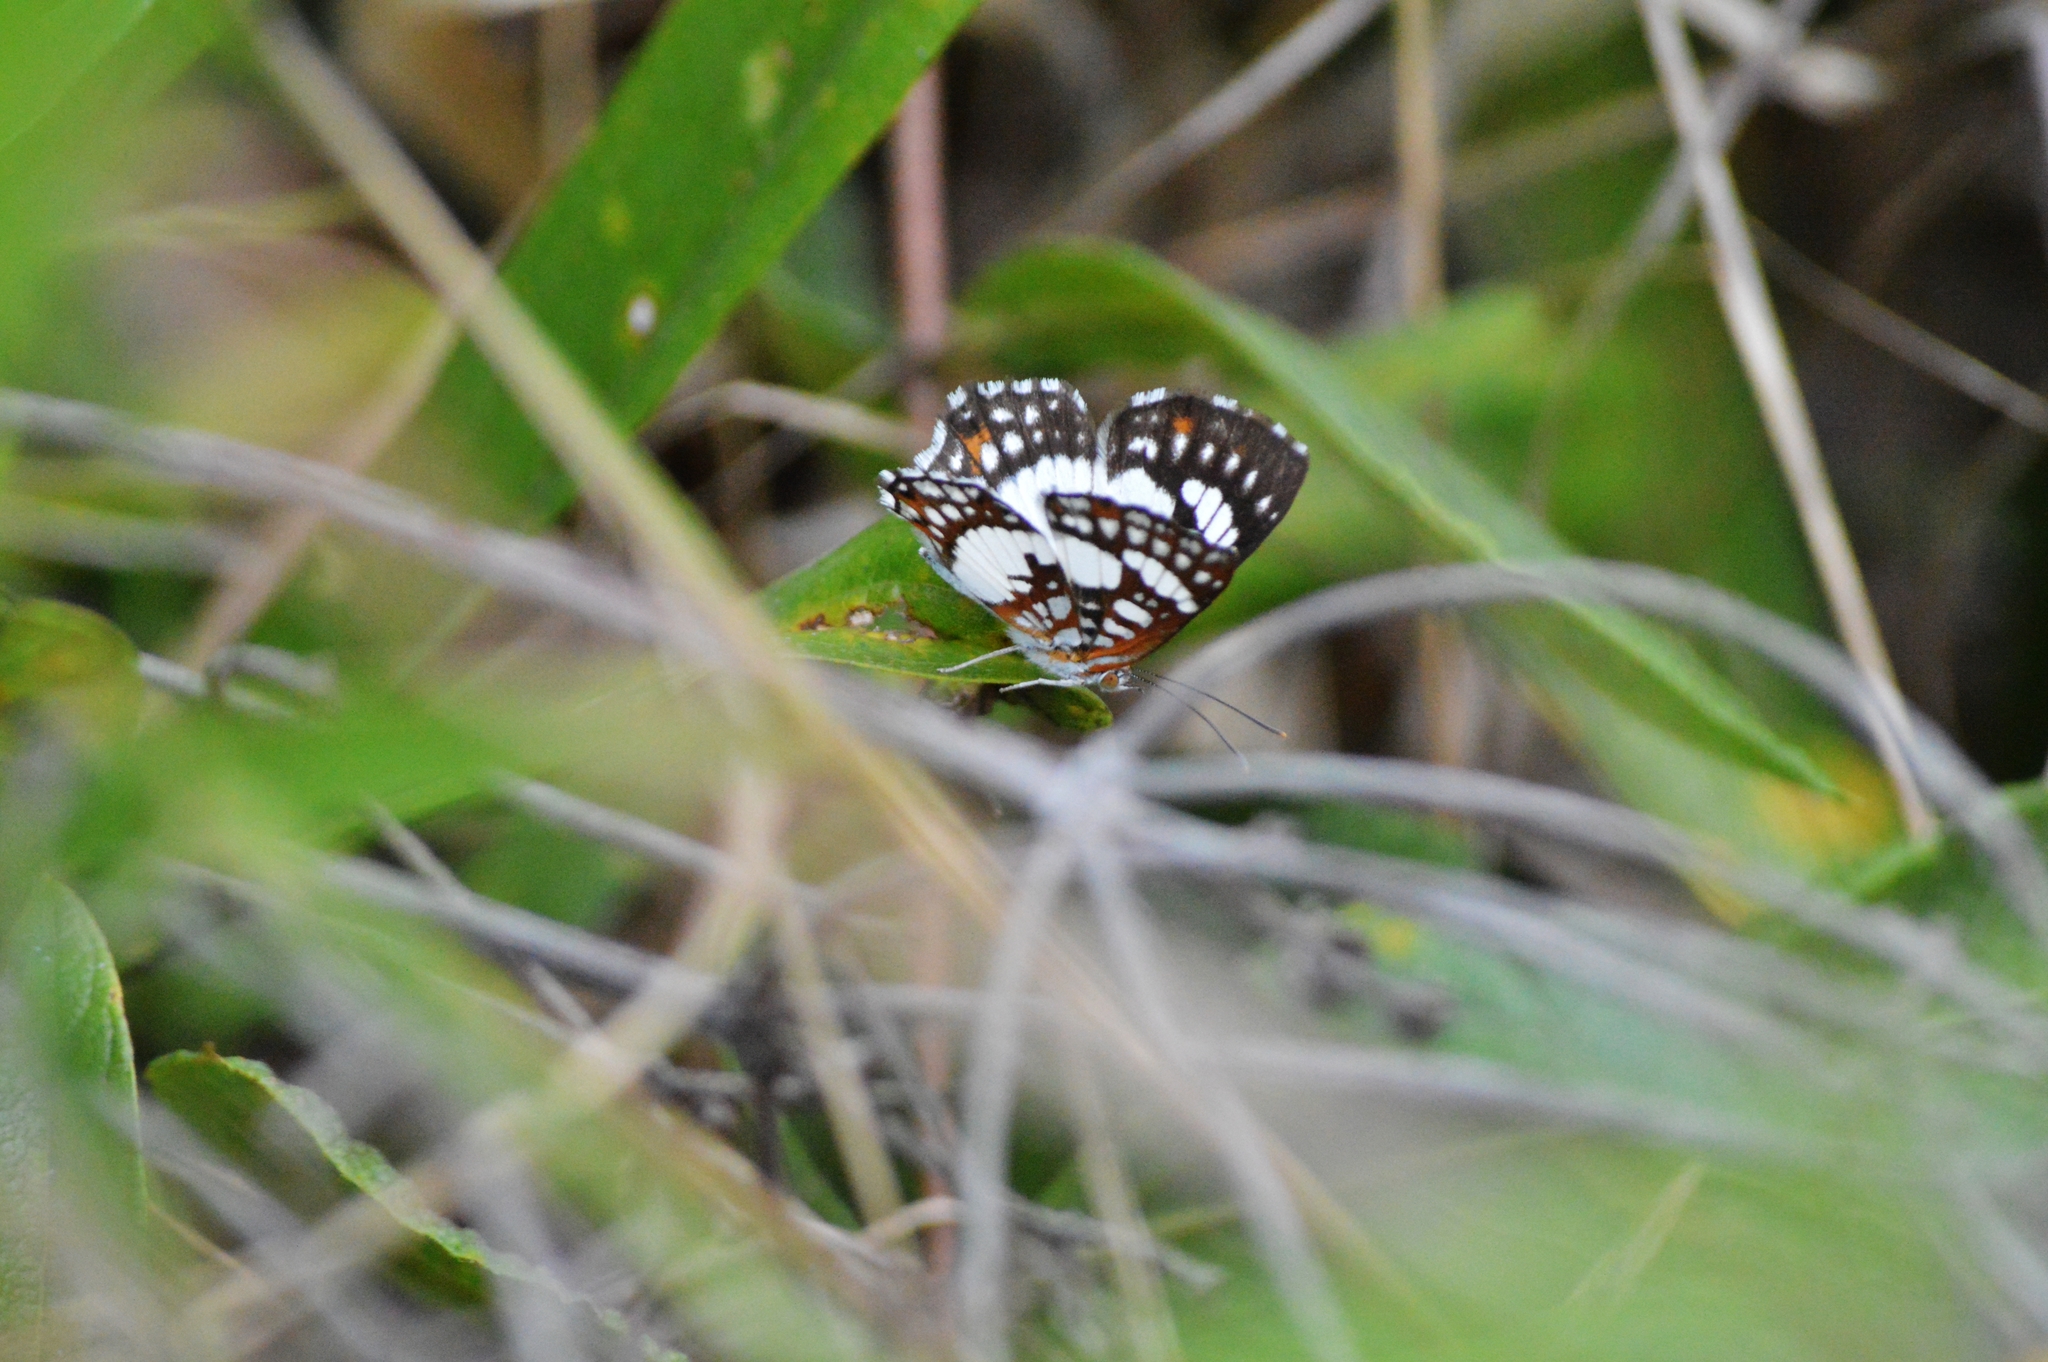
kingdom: Animalia
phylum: Arthropoda
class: Insecta
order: Lepidoptera
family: Riodinidae
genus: Ariconias
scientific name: Ariconias glaphyra
